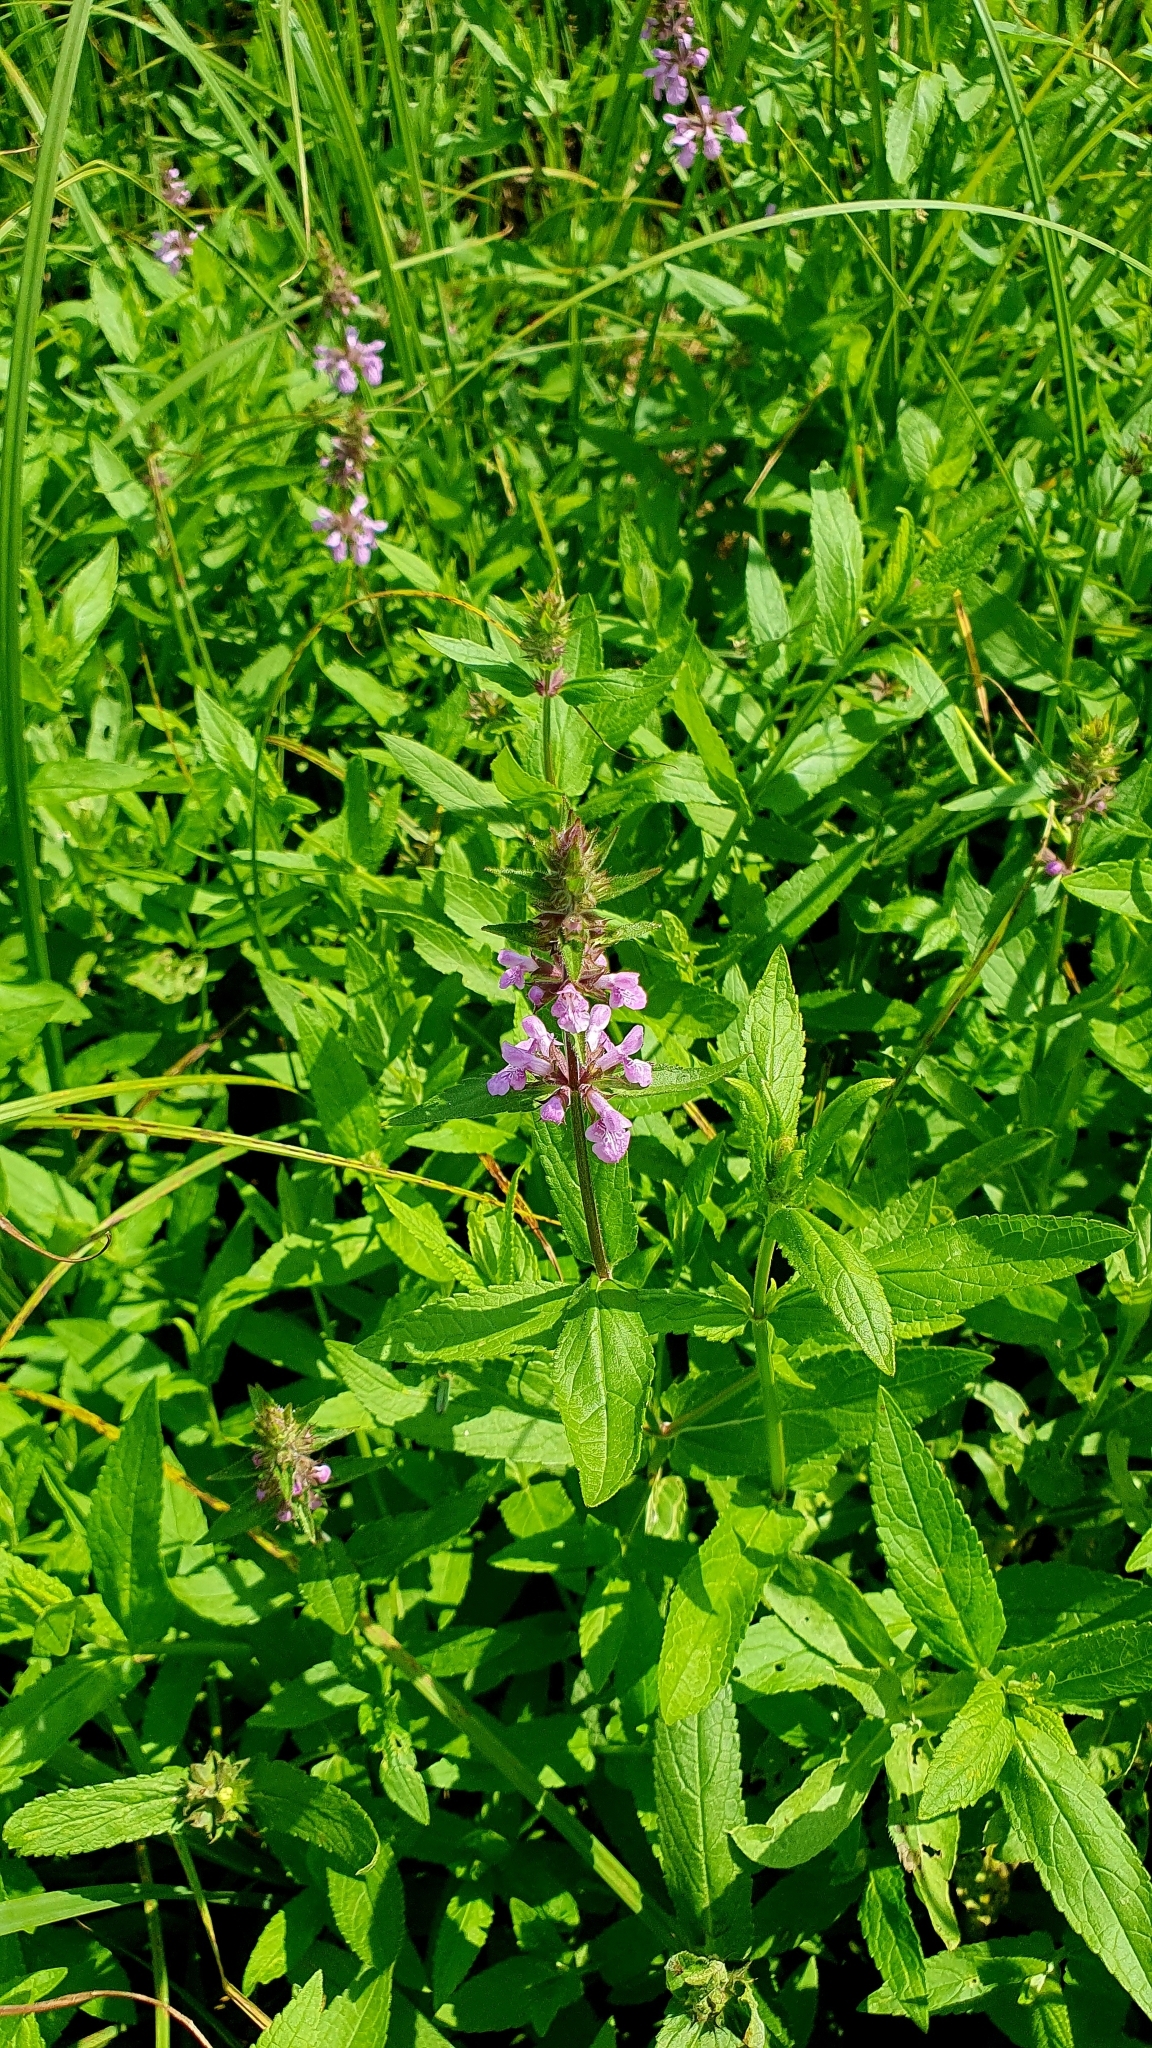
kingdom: Plantae
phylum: Tracheophyta
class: Magnoliopsida
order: Lamiales
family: Lamiaceae
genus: Stachys
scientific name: Stachys palustris
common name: Marsh woundwort
